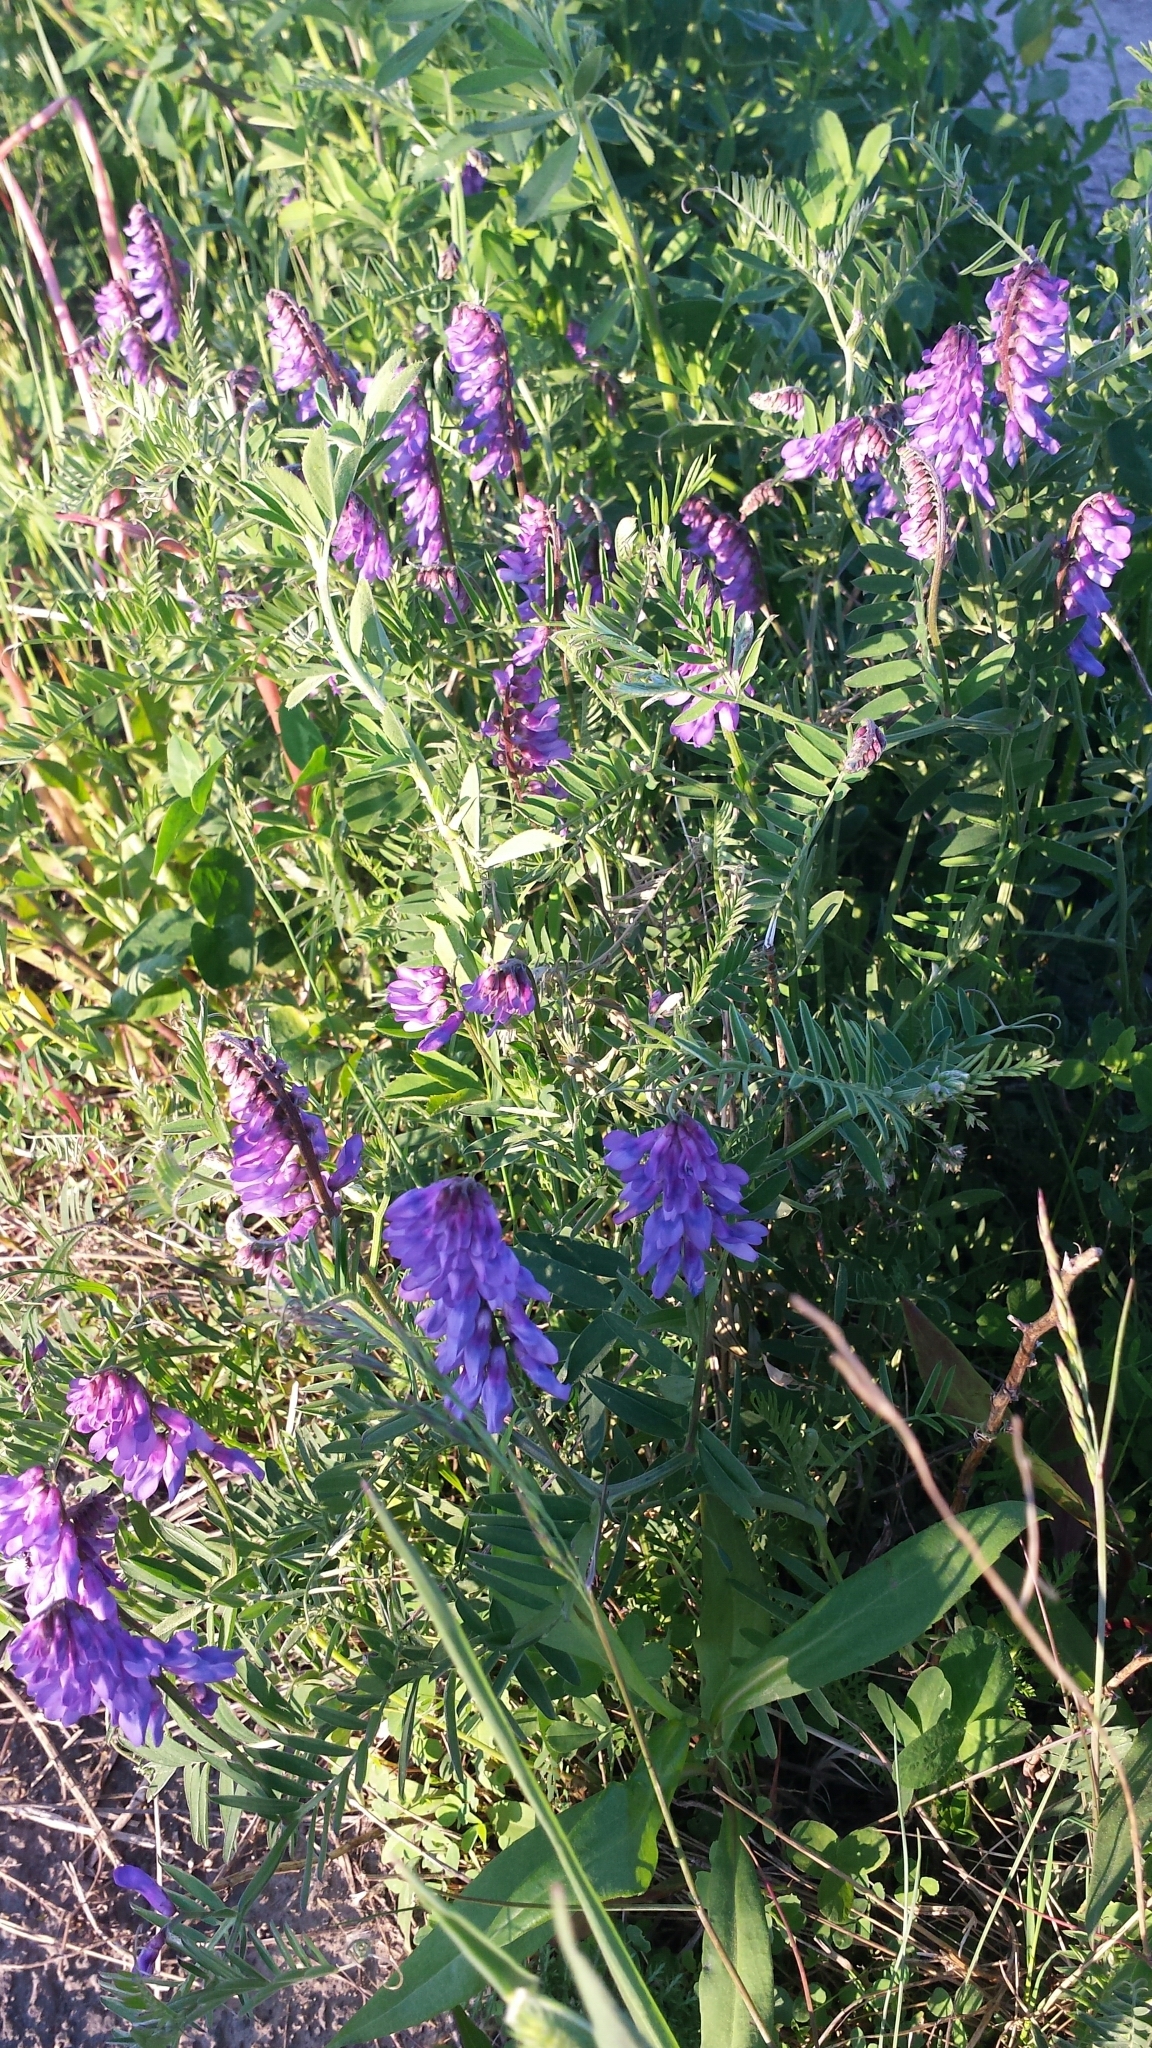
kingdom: Plantae
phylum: Tracheophyta
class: Magnoliopsida
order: Fabales
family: Fabaceae
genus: Vicia
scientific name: Vicia cracca
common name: Bird vetch
